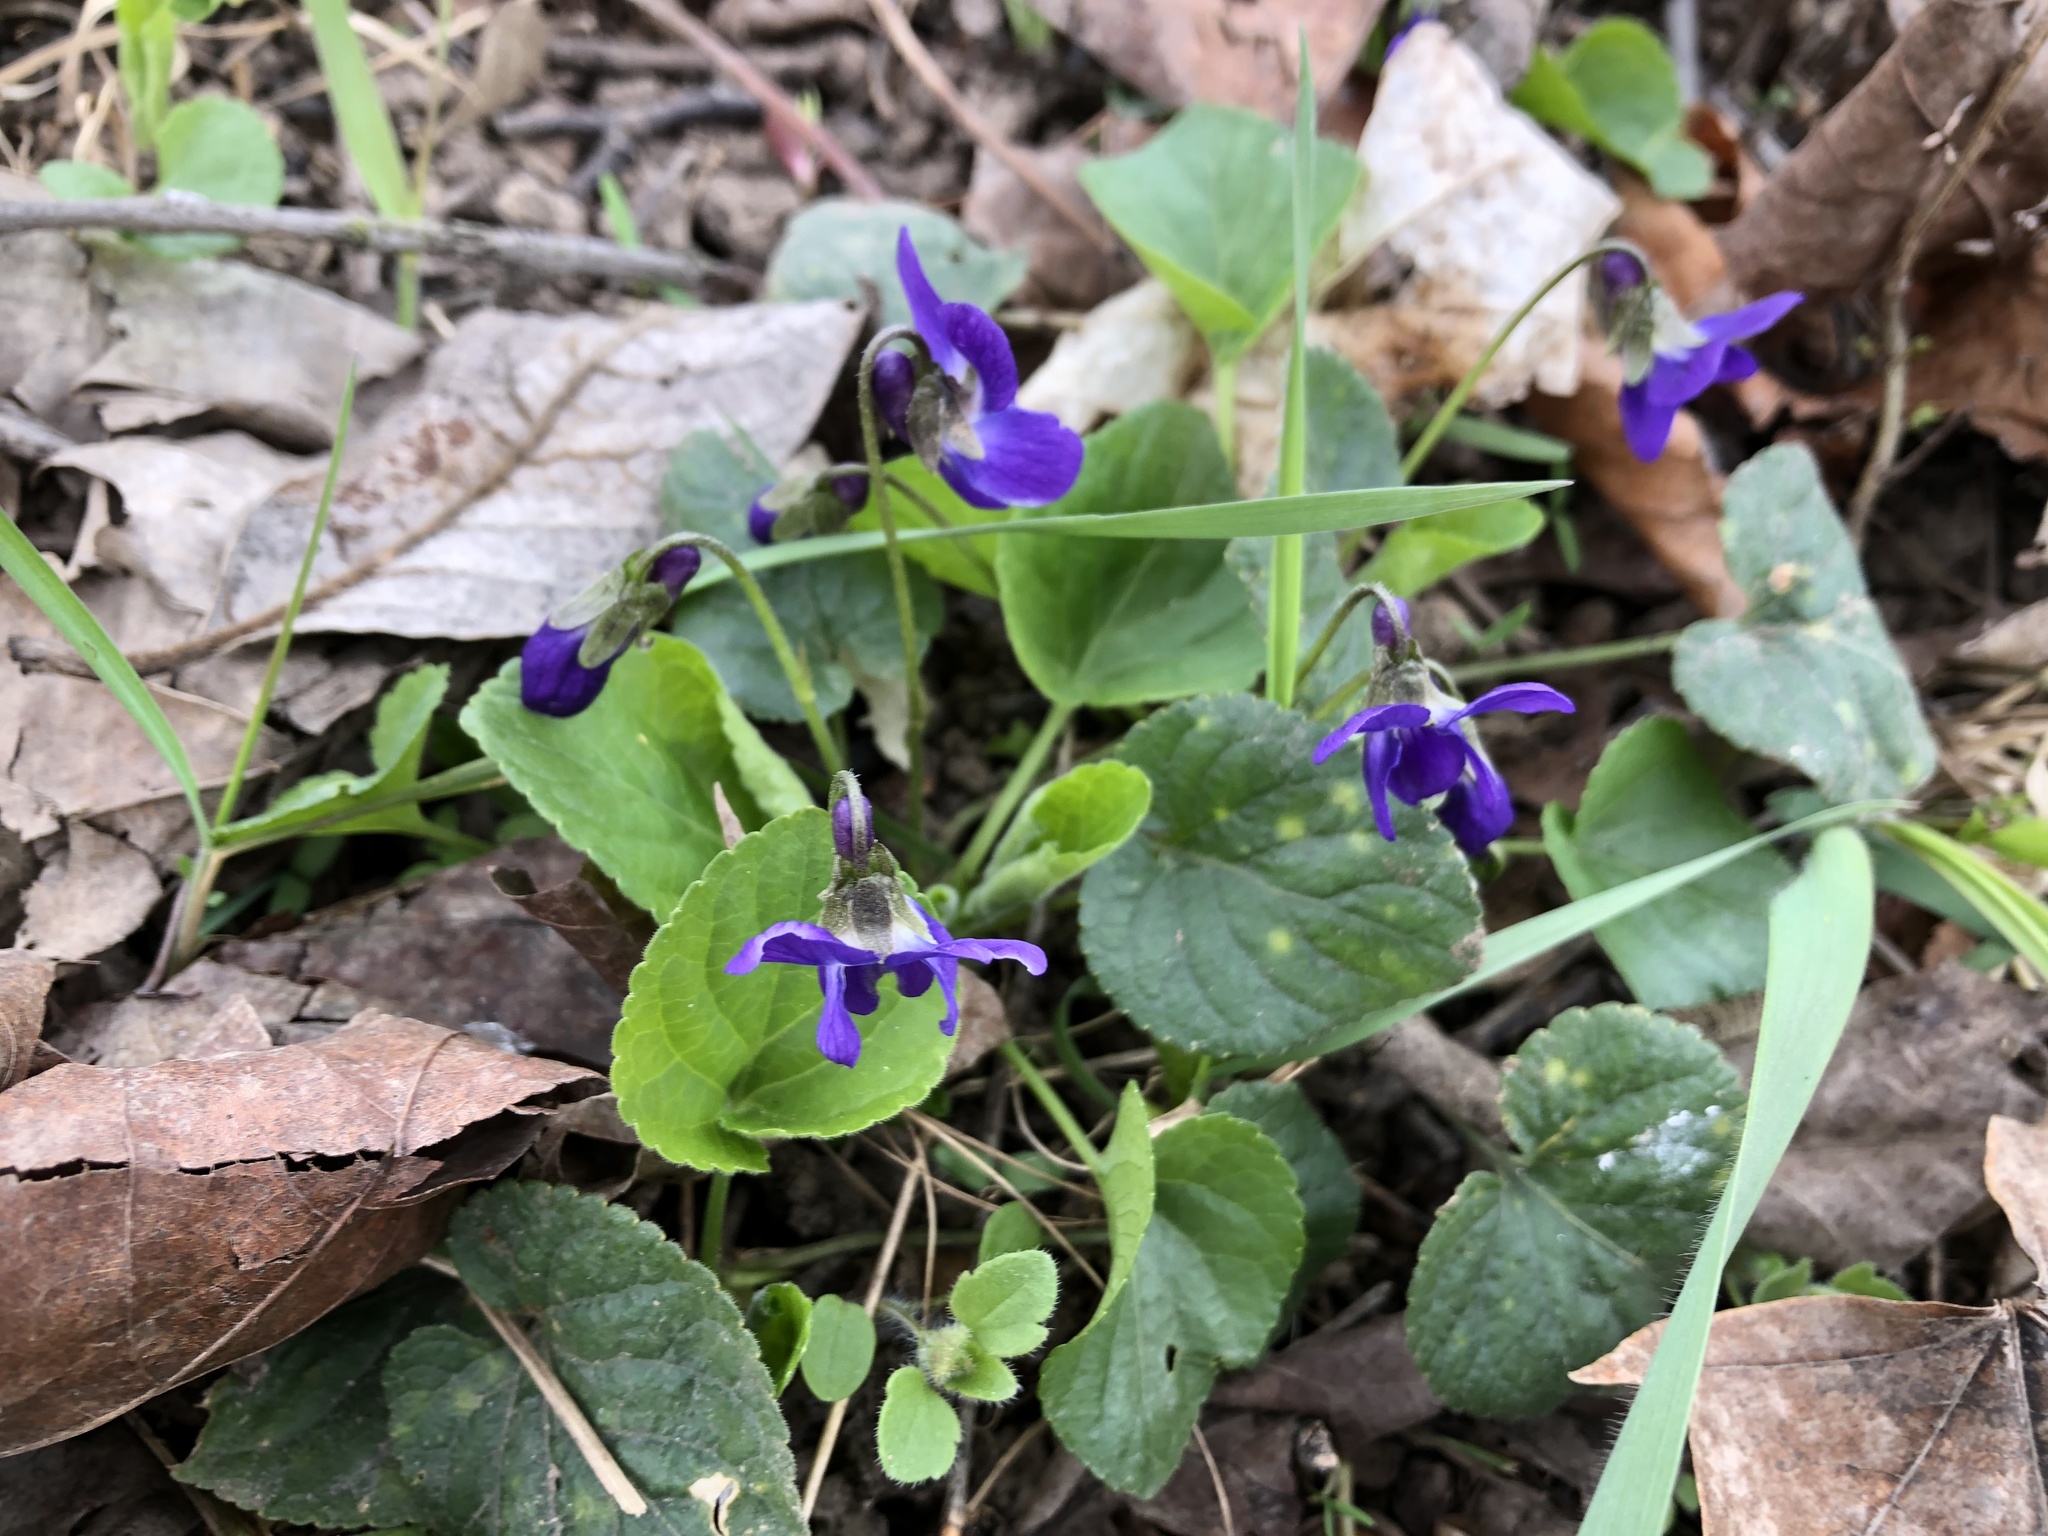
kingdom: Plantae
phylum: Tracheophyta
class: Magnoliopsida
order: Malpighiales
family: Violaceae
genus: Viola
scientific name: Viola odorata
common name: Sweet violet
